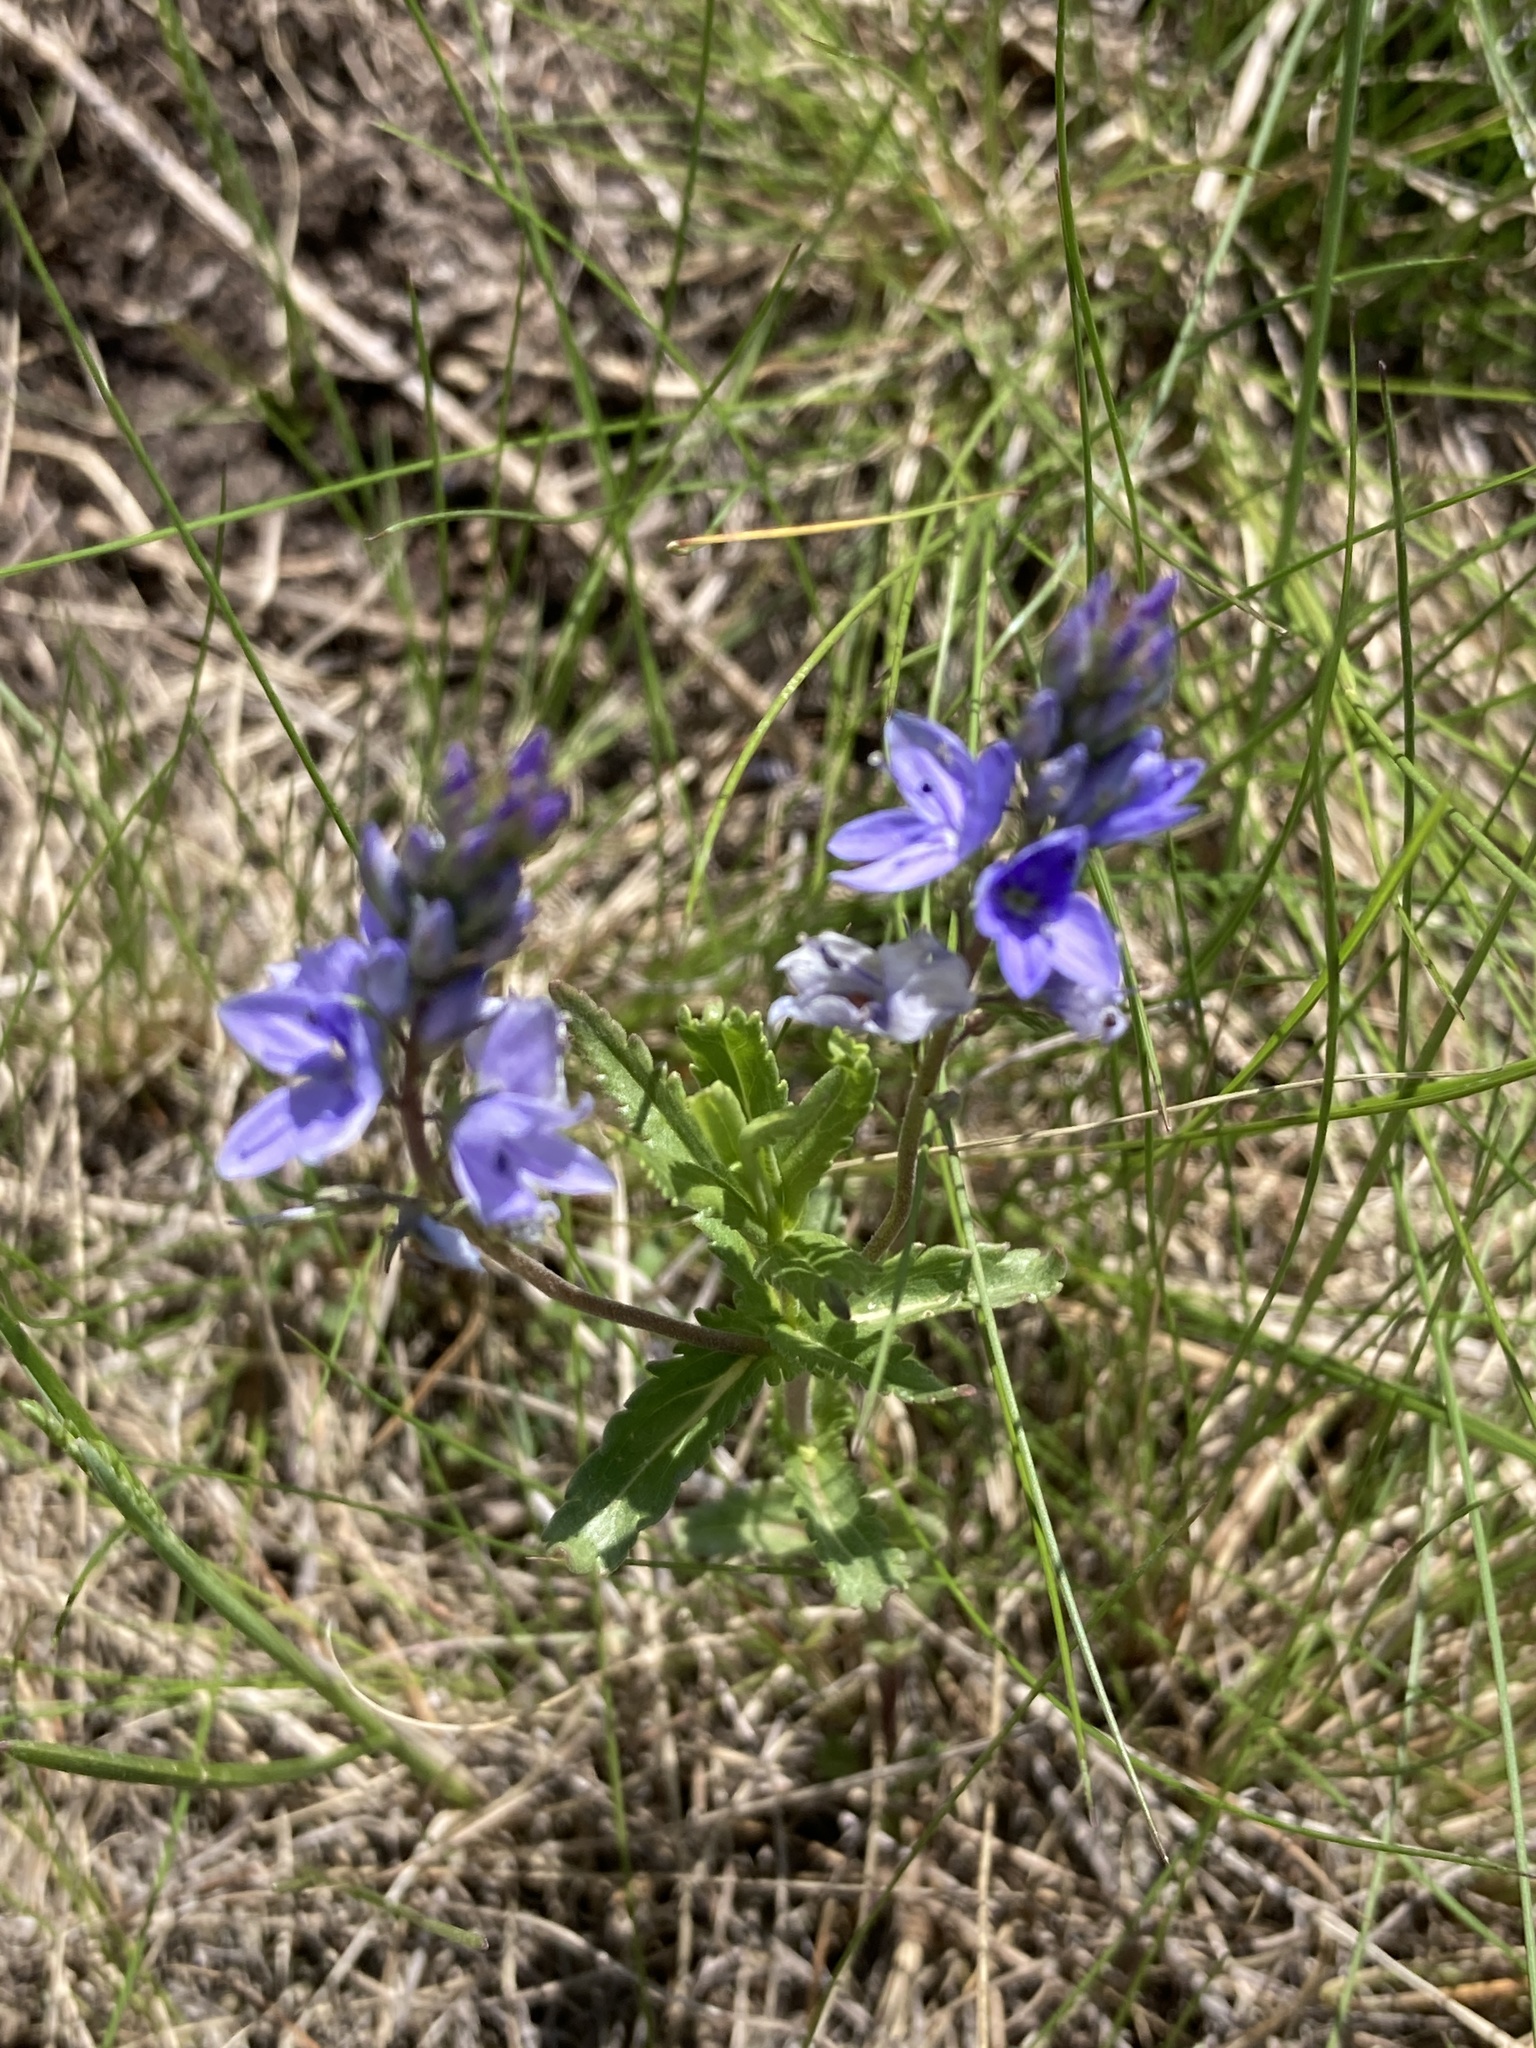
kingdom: Plantae
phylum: Tracheophyta
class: Magnoliopsida
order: Lamiales
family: Plantaginaceae
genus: Veronica
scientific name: Veronica prostrata
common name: Prostrate speedwell
